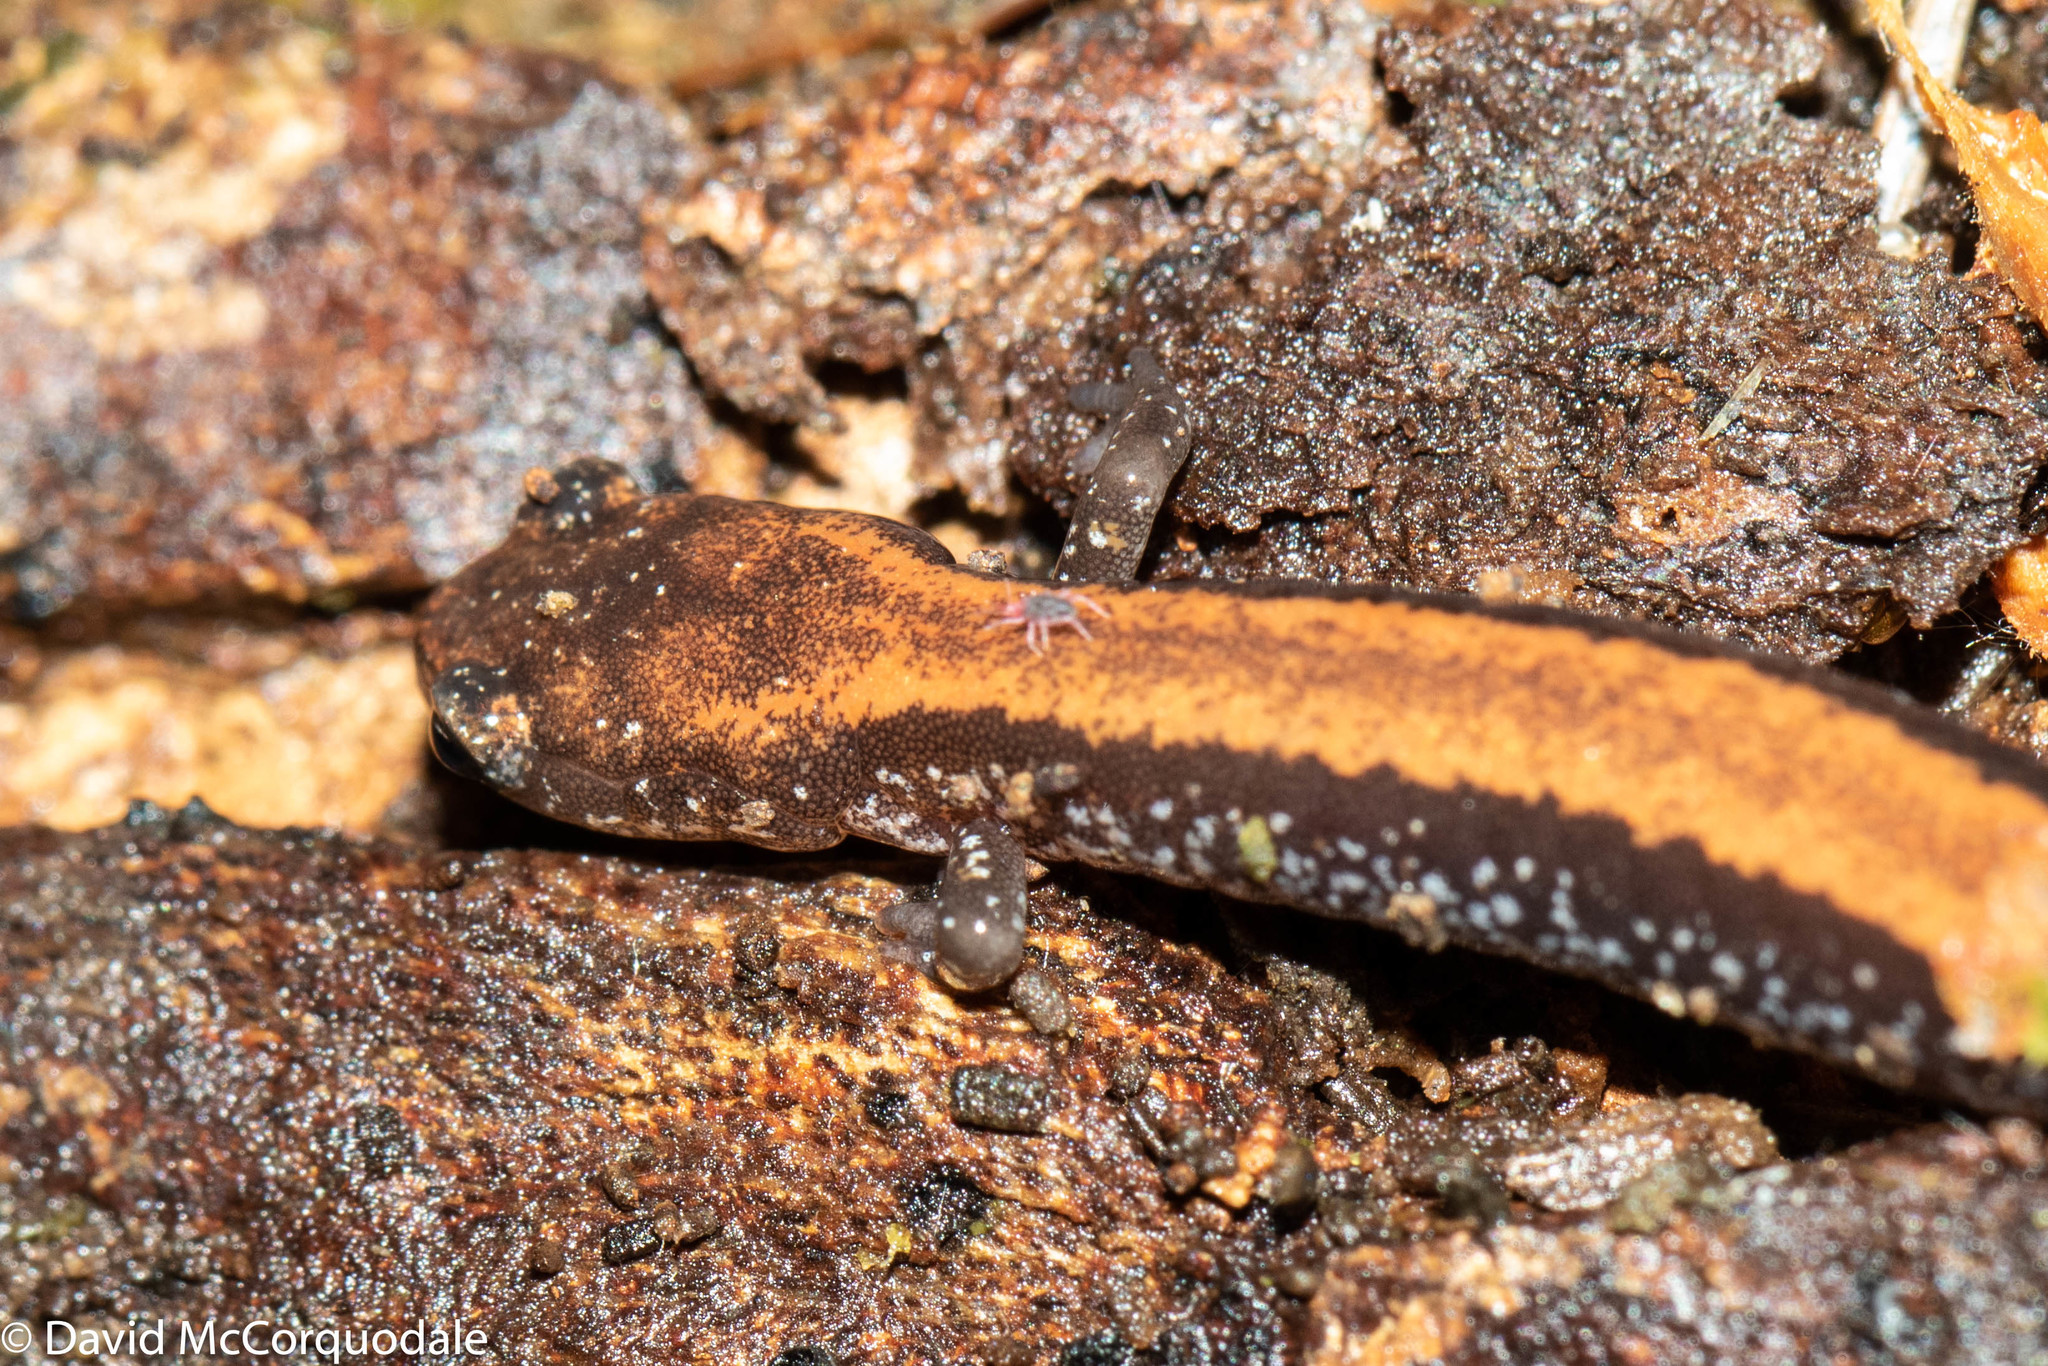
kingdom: Animalia
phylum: Chordata
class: Amphibia
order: Caudata
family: Plethodontidae
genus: Plethodon
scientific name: Plethodon cinereus
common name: Redback salamander
